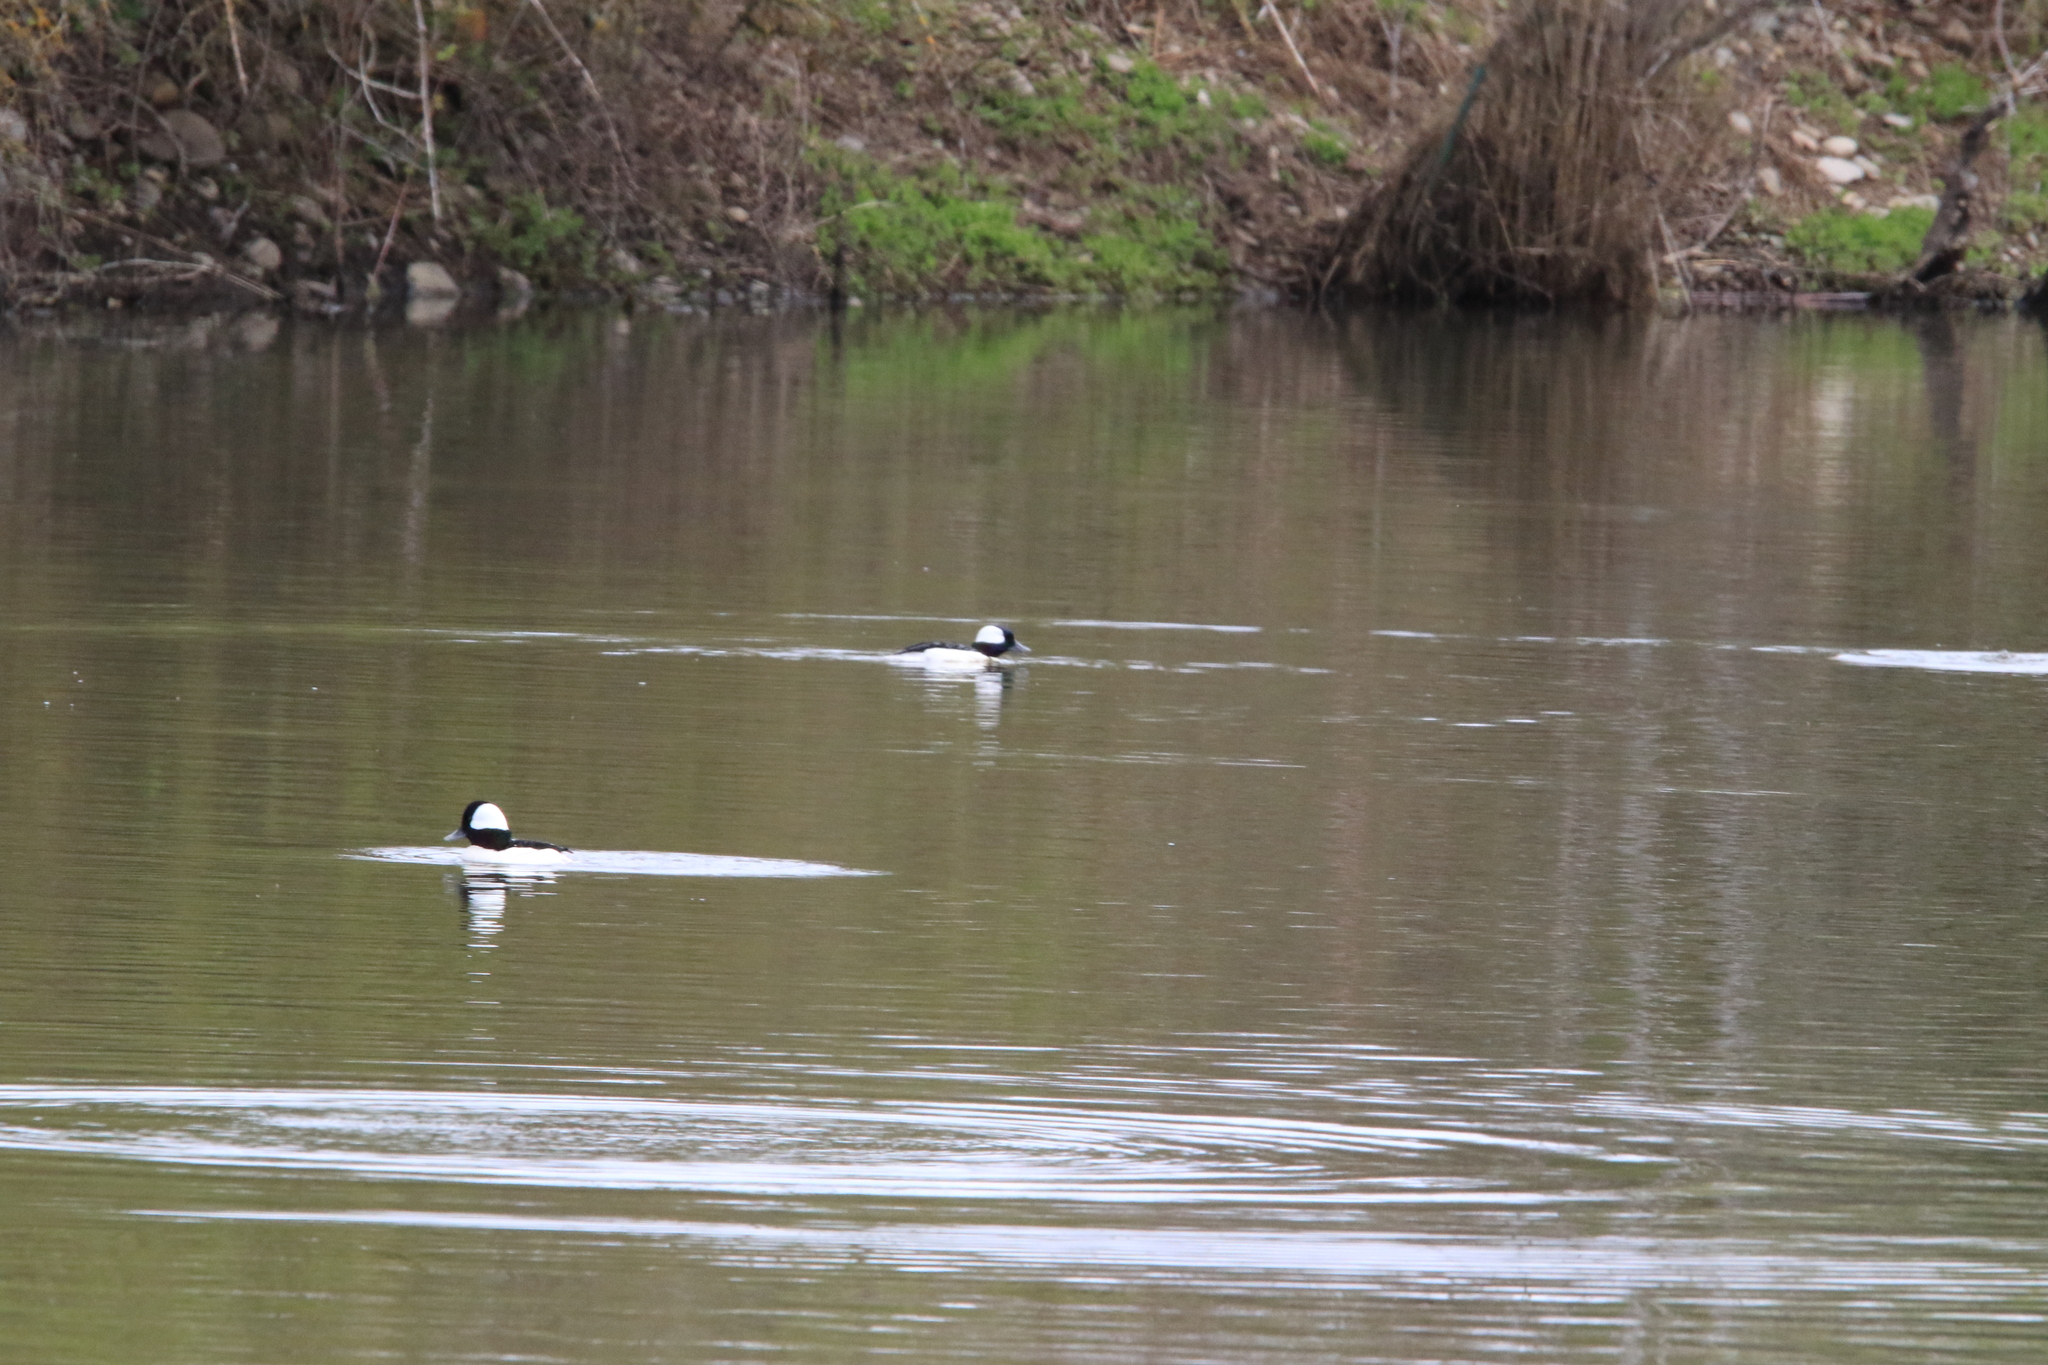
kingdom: Animalia
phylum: Chordata
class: Aves
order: Anseriformes
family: Anatidae
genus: Bucephala
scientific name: Bucephala albeola
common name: Bufflehead
